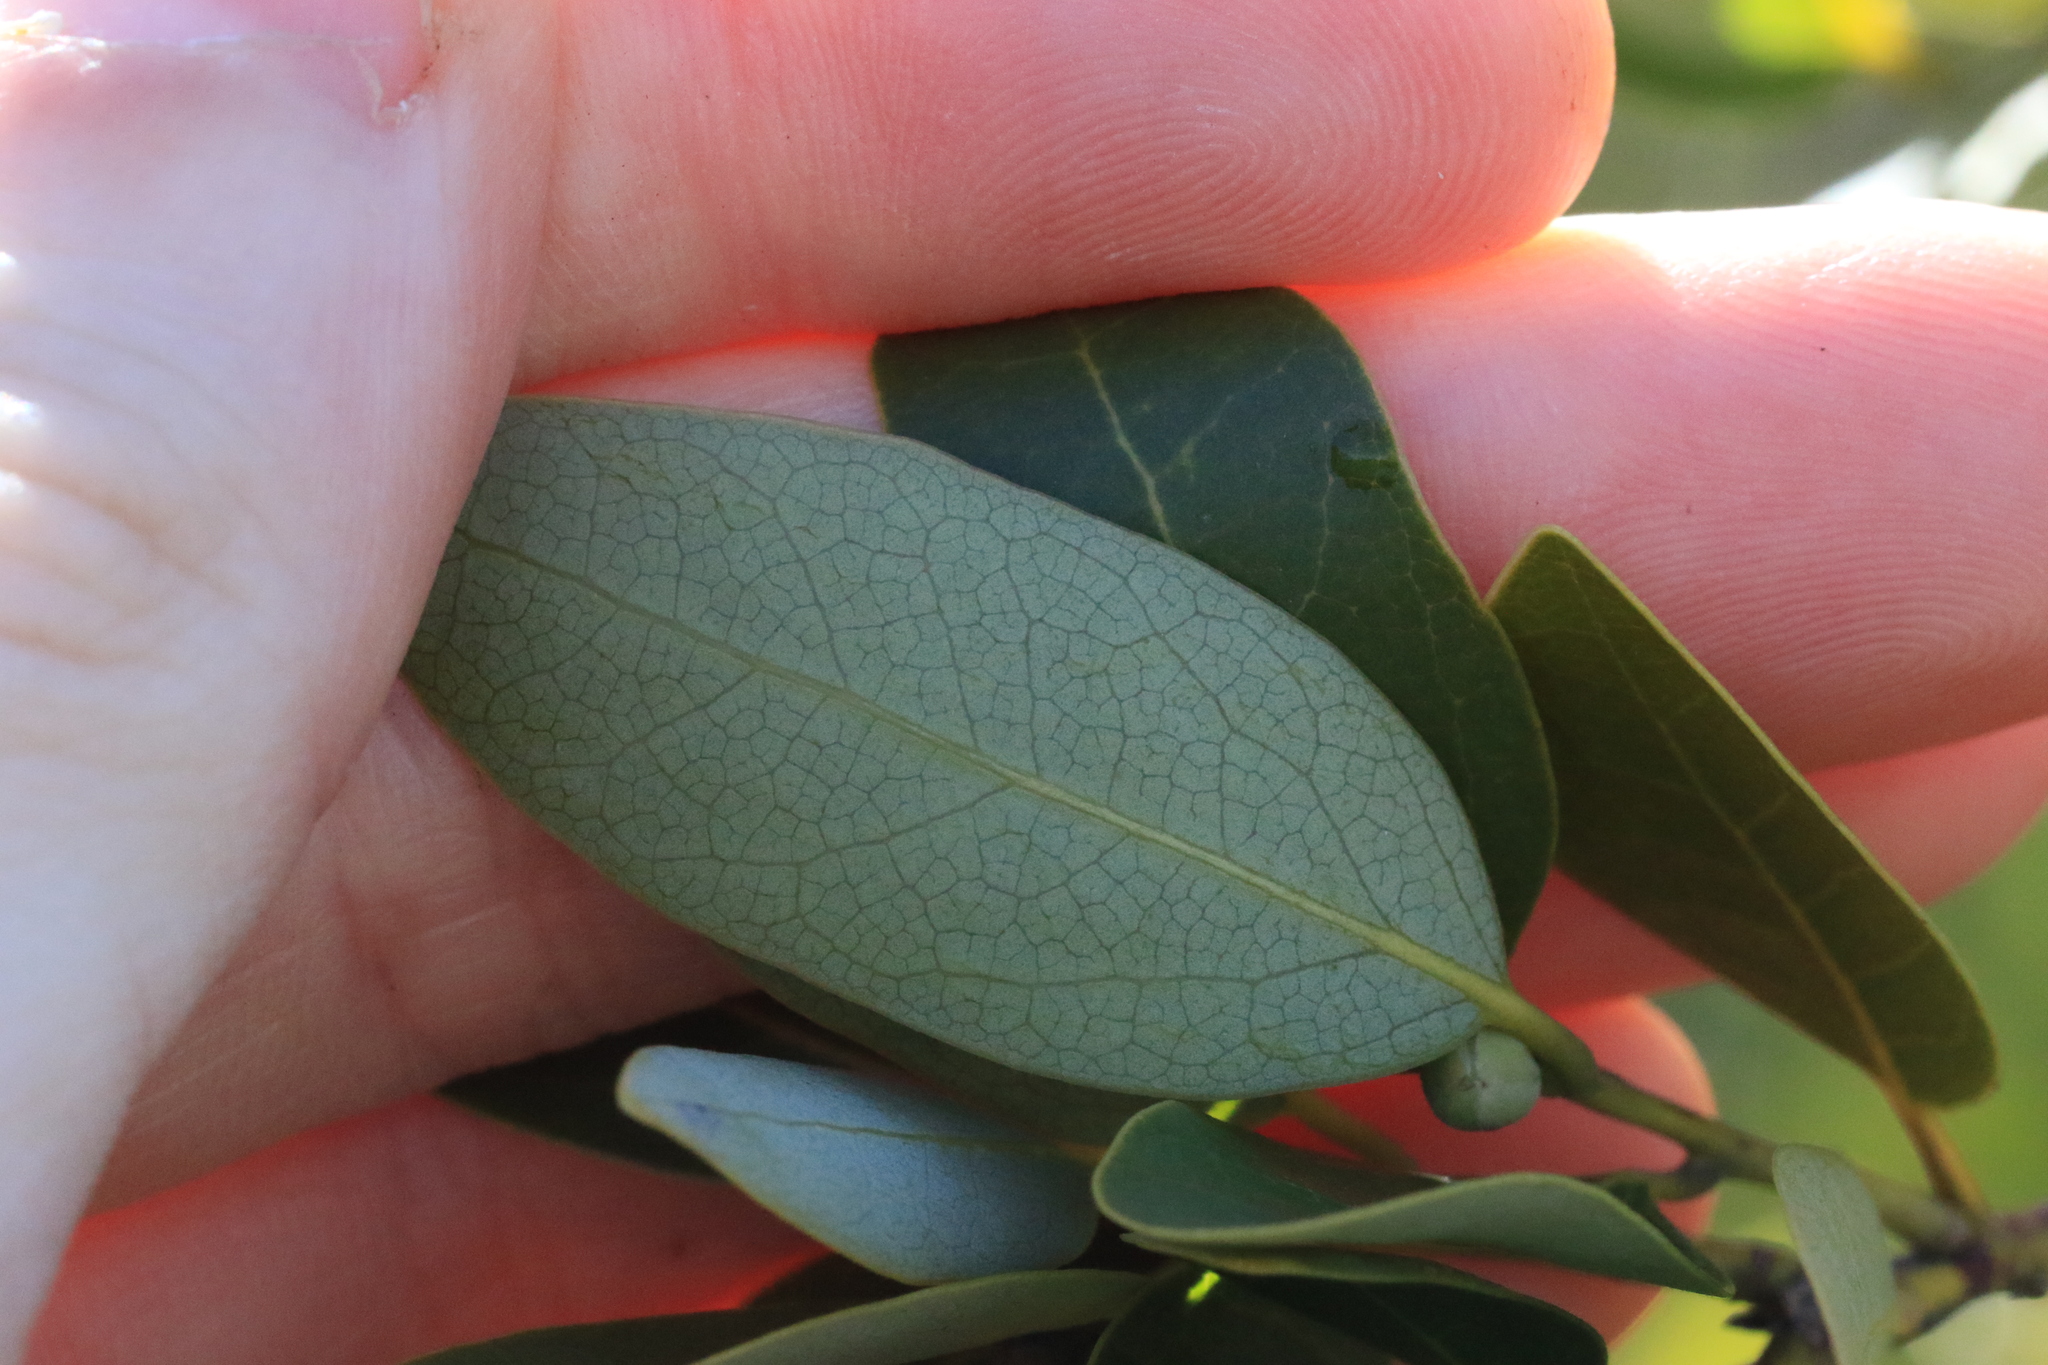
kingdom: Plantae
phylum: Tracheophyta
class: Magnoliopsida
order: Laurales
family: Lauraceae
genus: Umbellularia
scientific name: Umbellularia californica
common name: California bay
